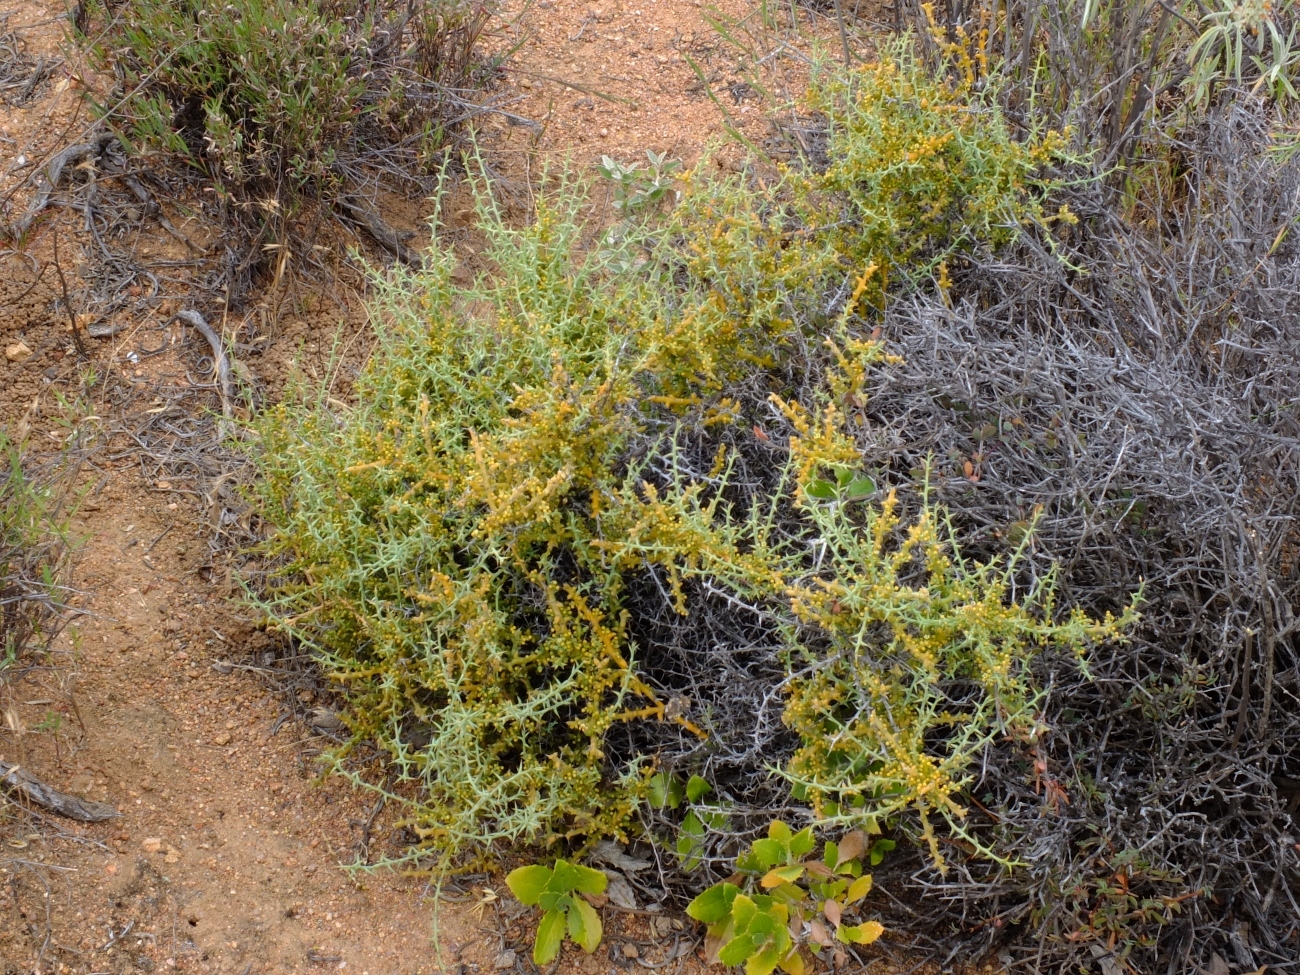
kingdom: Plantae
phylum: Tracheophyta
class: Magnoliopsida
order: Santalales
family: Thesiaceae
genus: Thesium
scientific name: Thesium pungens
